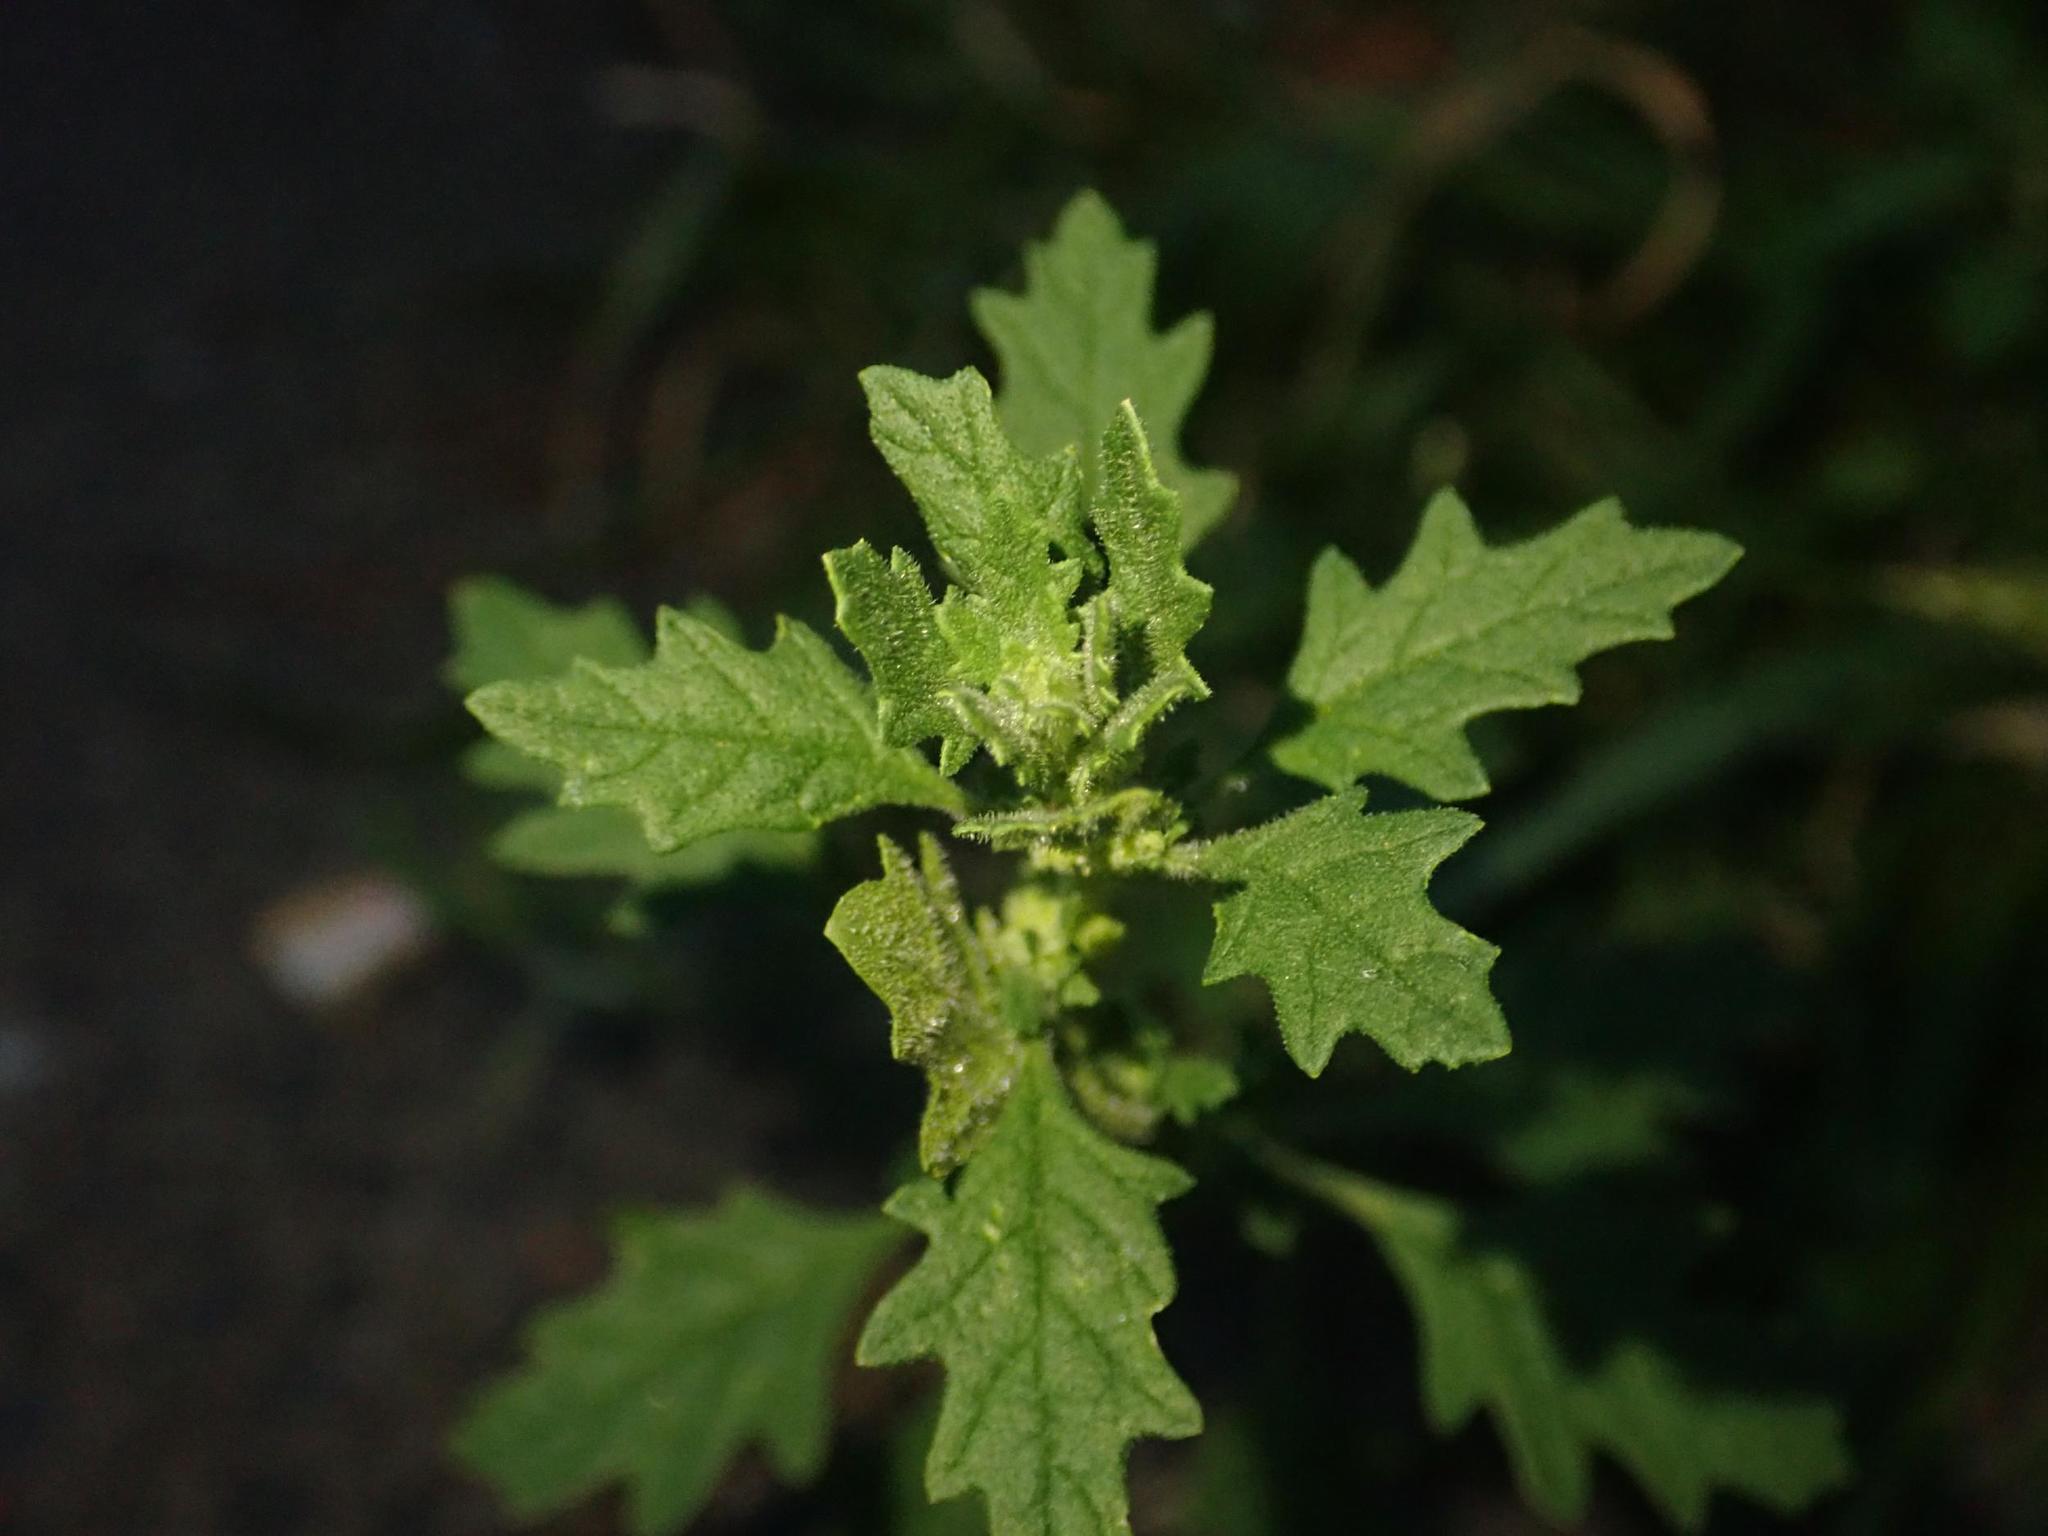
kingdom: Plantae
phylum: Tracheophyta
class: Magnoliopsida
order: Caryophyllales
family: Amaranthaceae
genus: Dysphania
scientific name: Dysphania pumilio
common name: Clammy goosefoot
